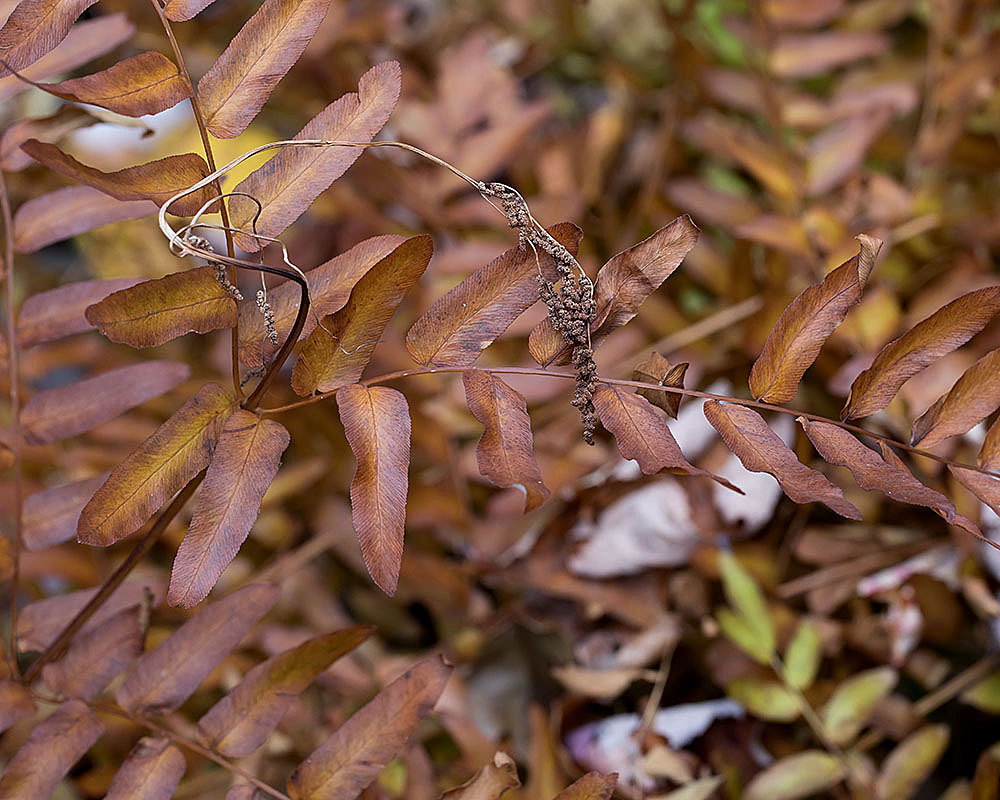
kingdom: Plantae
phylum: Tracheophyta
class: Polypodiopsida
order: Osmundales
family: Osmundaceae
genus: Osmunda
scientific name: Osmunda spectabilis
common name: American royal fern
